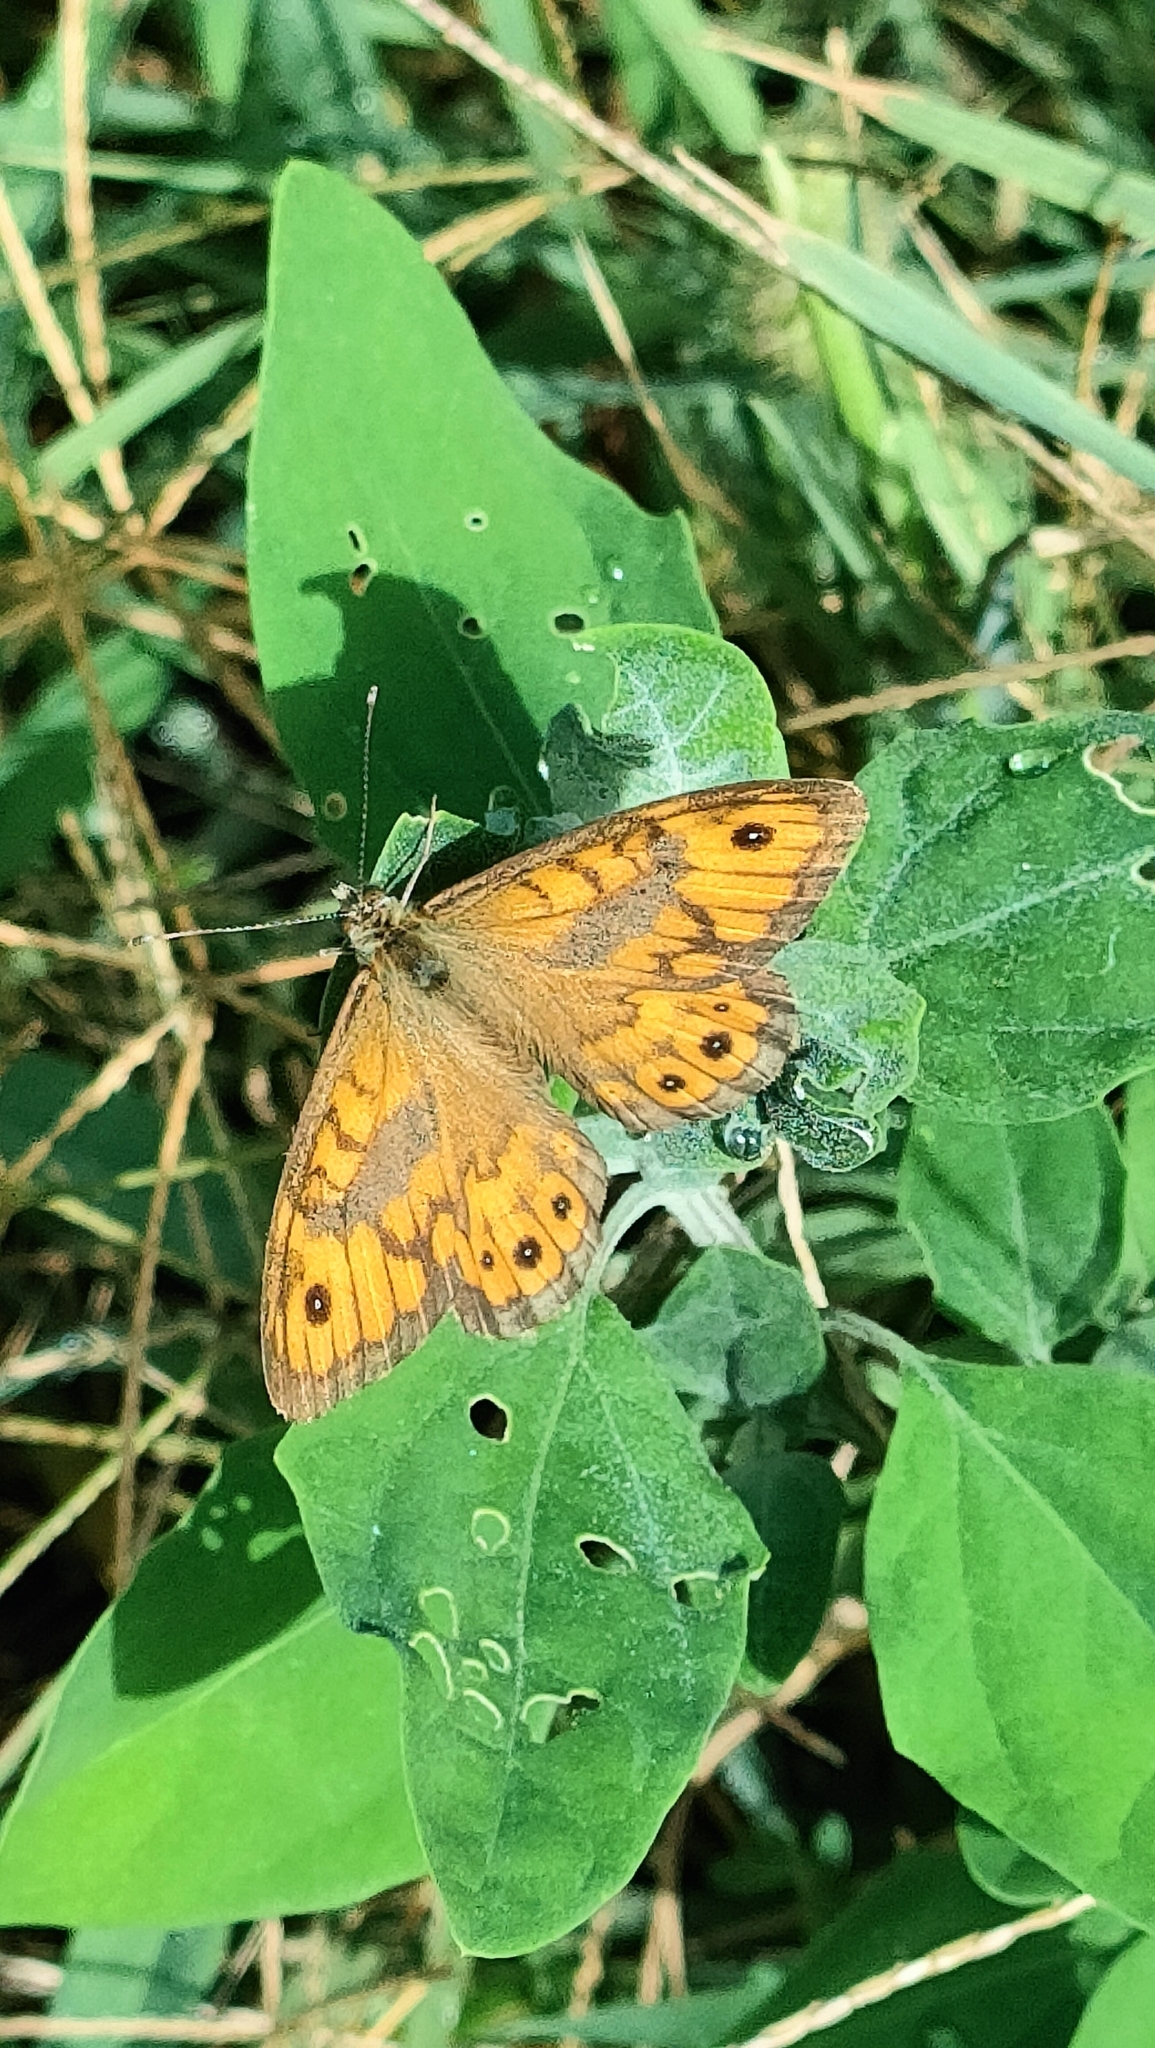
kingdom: Animalia
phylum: Arthropoda
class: Insecta
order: Lepidoptera
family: Nymphalidae
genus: Pararge
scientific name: Pararge Lasiommata megera
